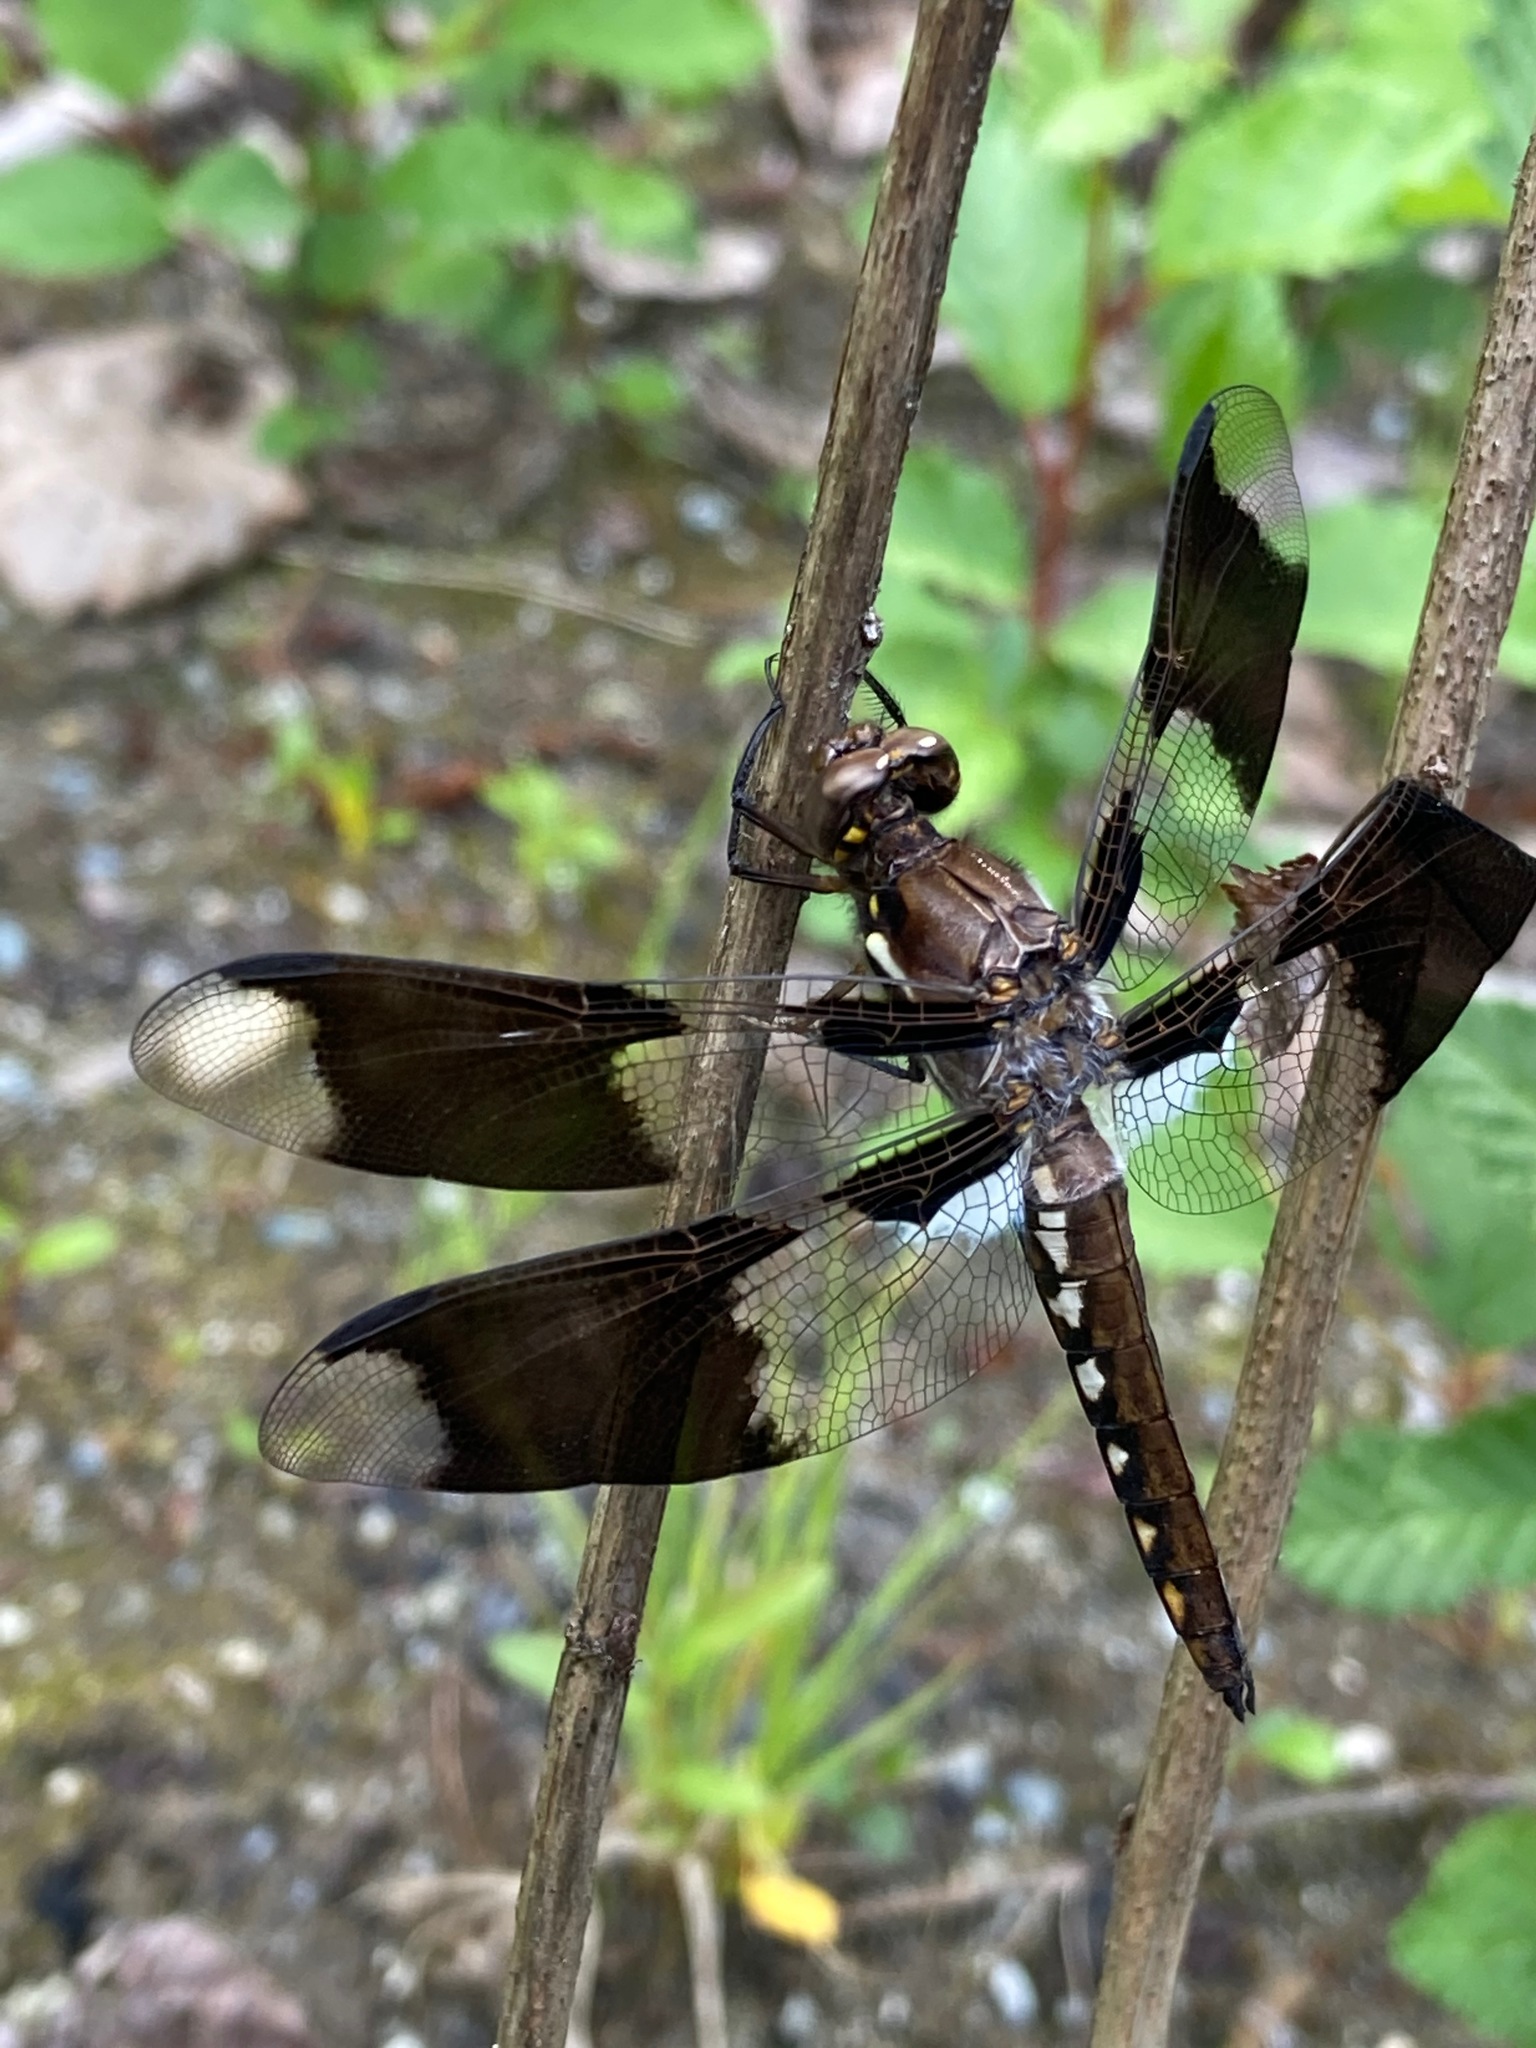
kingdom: Animalia
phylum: Arthropoda
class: Insecta
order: Odonata
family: Libellulidae
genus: Plathemis
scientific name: Plathemis lydia
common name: Common whitetail
